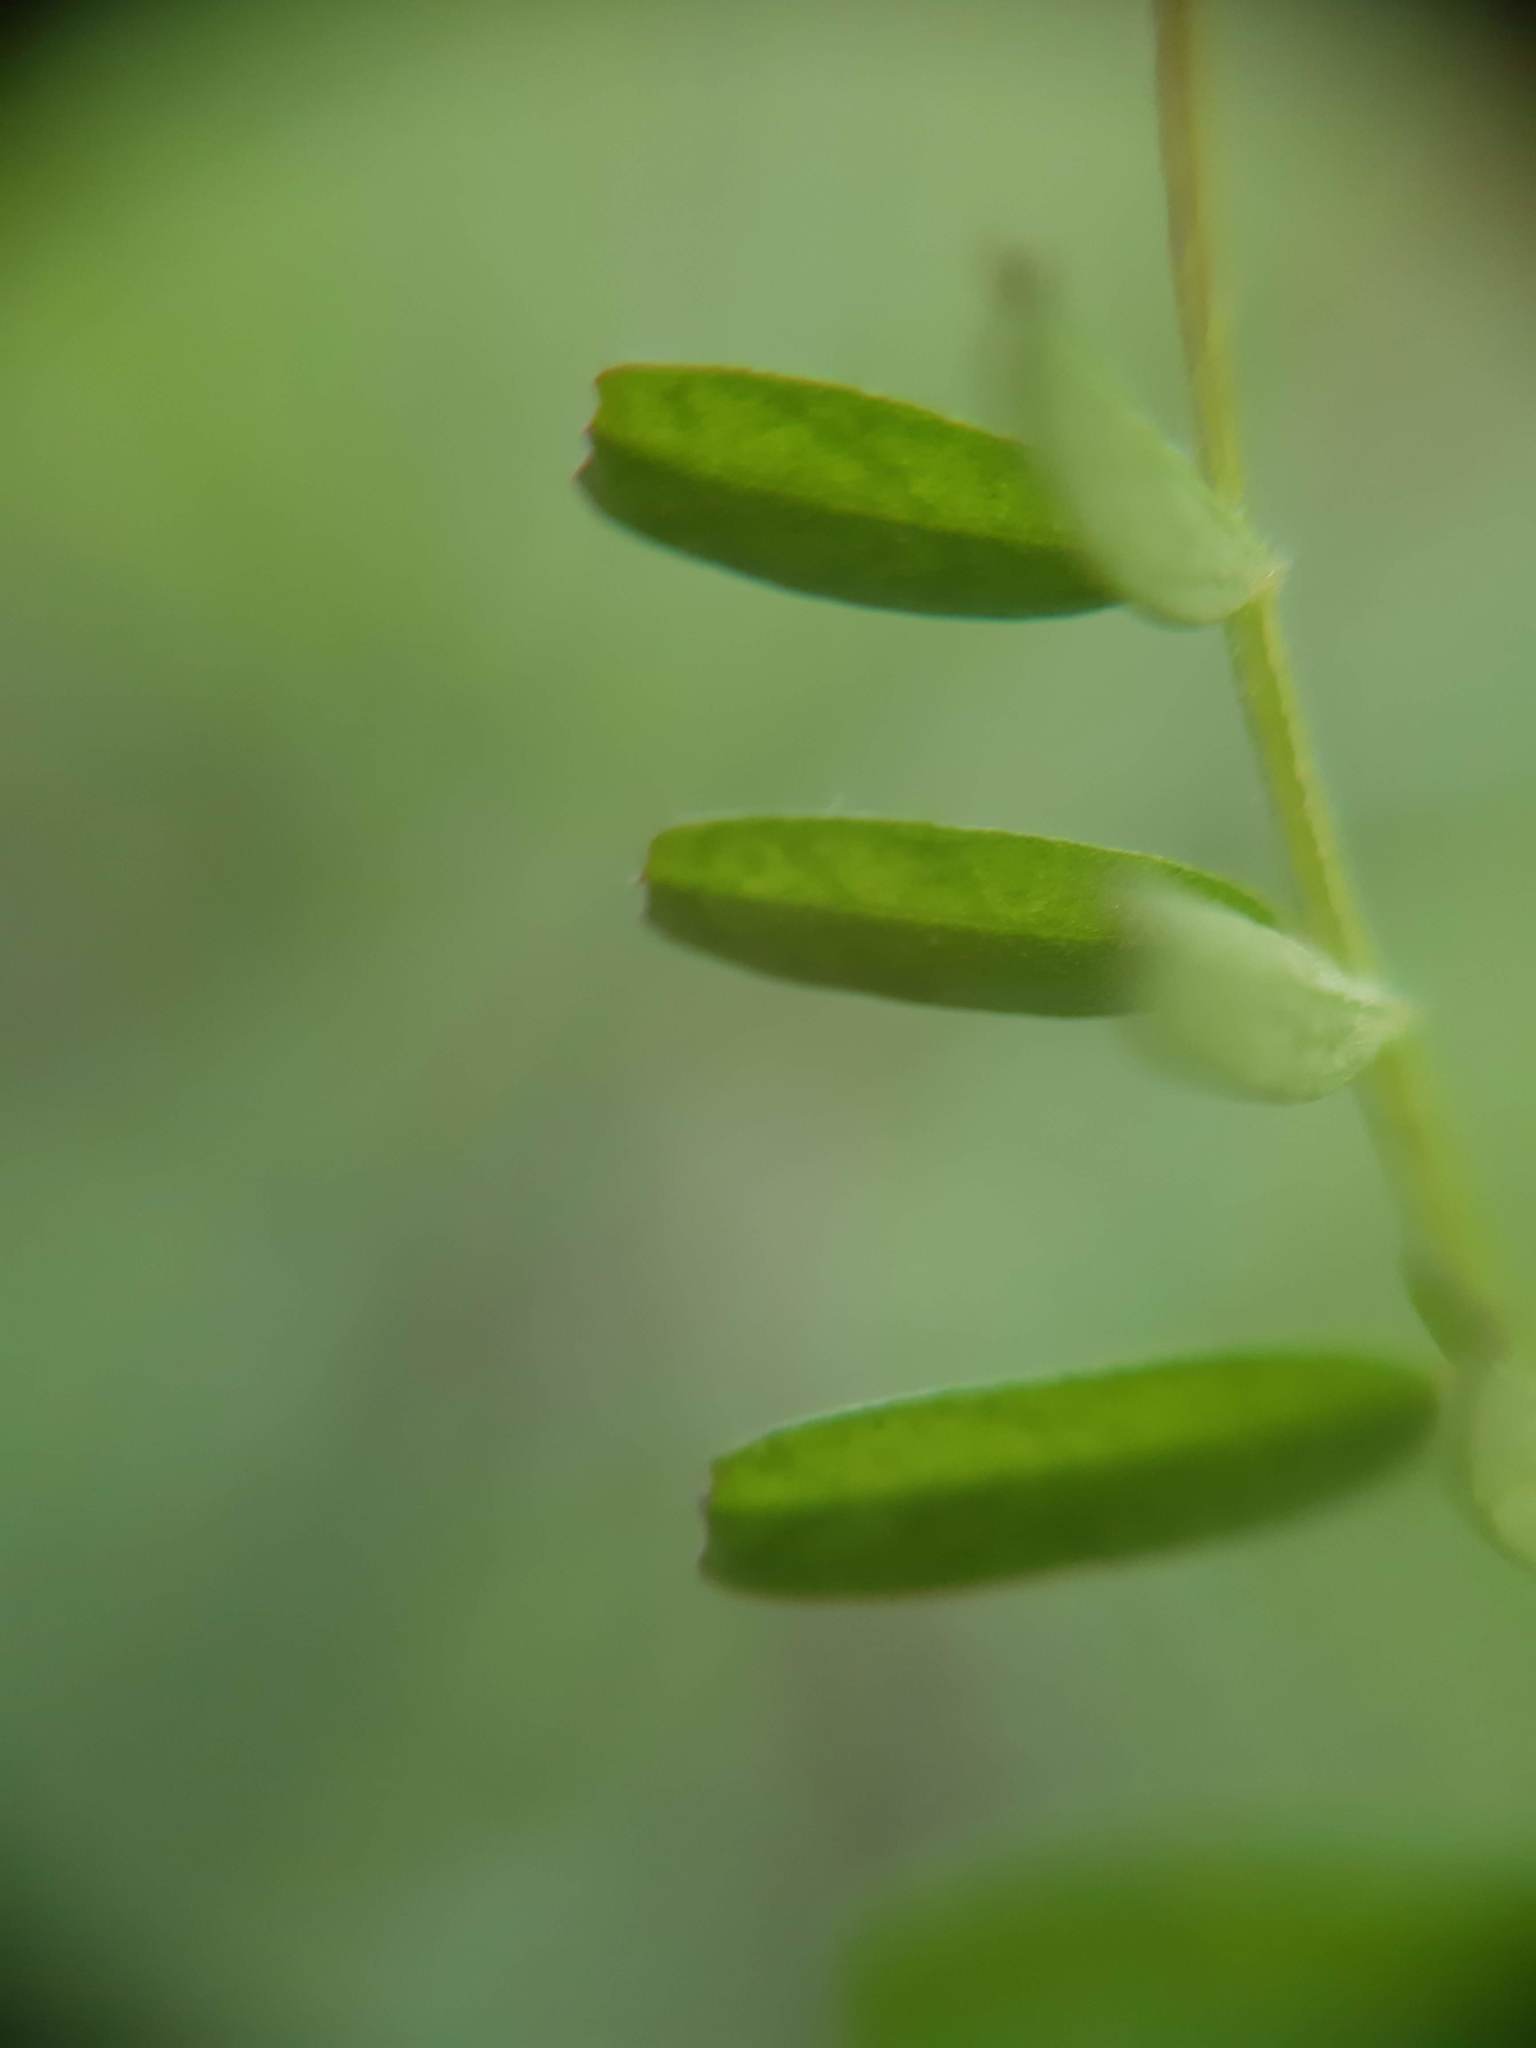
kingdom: Plantae
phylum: Tracheophyta
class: Magnoliopsida
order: Fabales
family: Fabaceae
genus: Vicia
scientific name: Vicia hirsuta
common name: Tiny vetch
